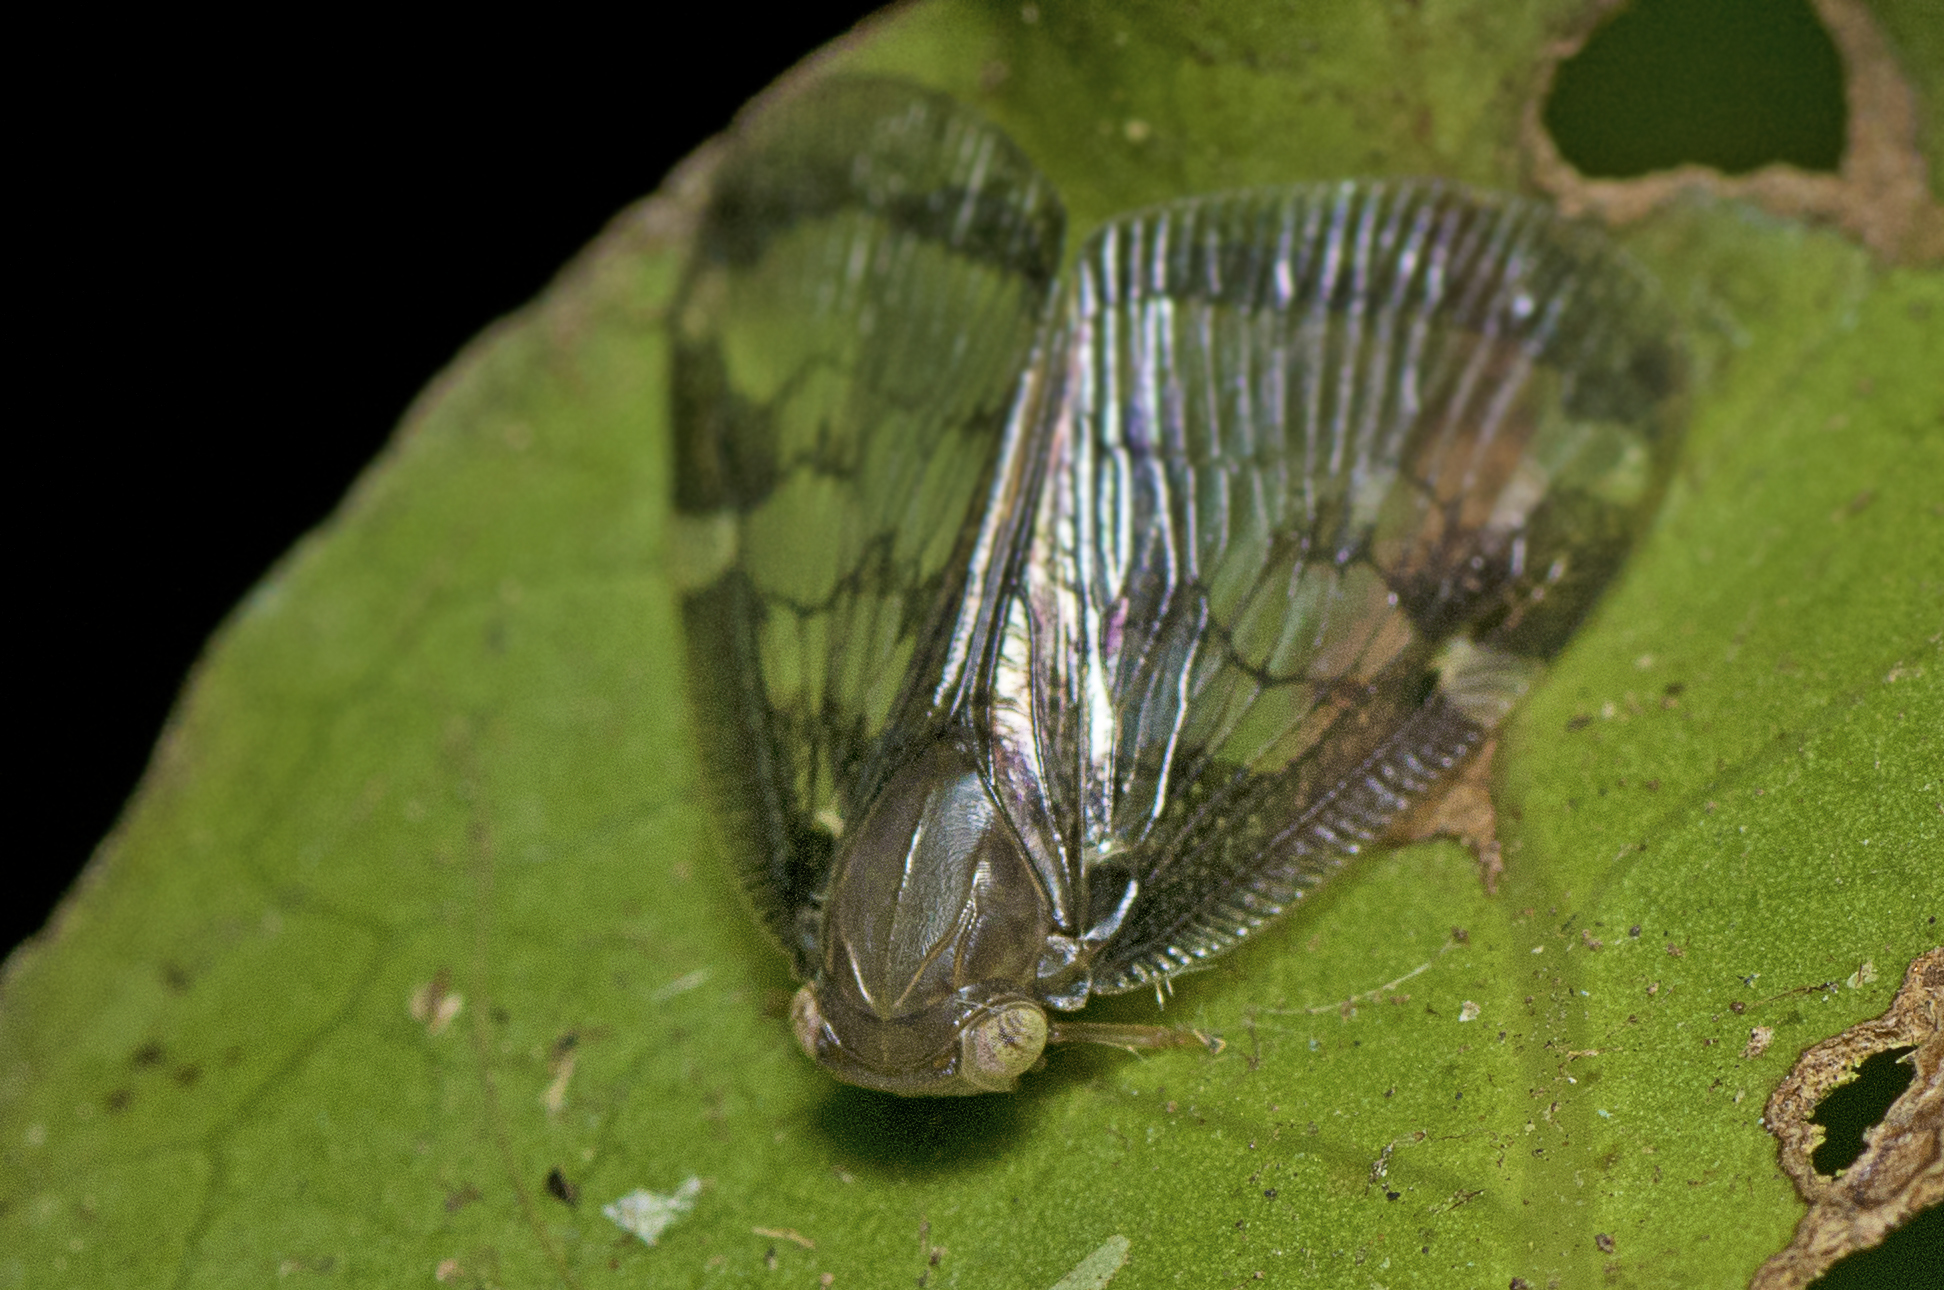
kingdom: Animalia
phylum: Arthropoda
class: Insecta
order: Hemiptera
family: Ricaniidae
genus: Scolypopa
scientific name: Scolypopa australis
